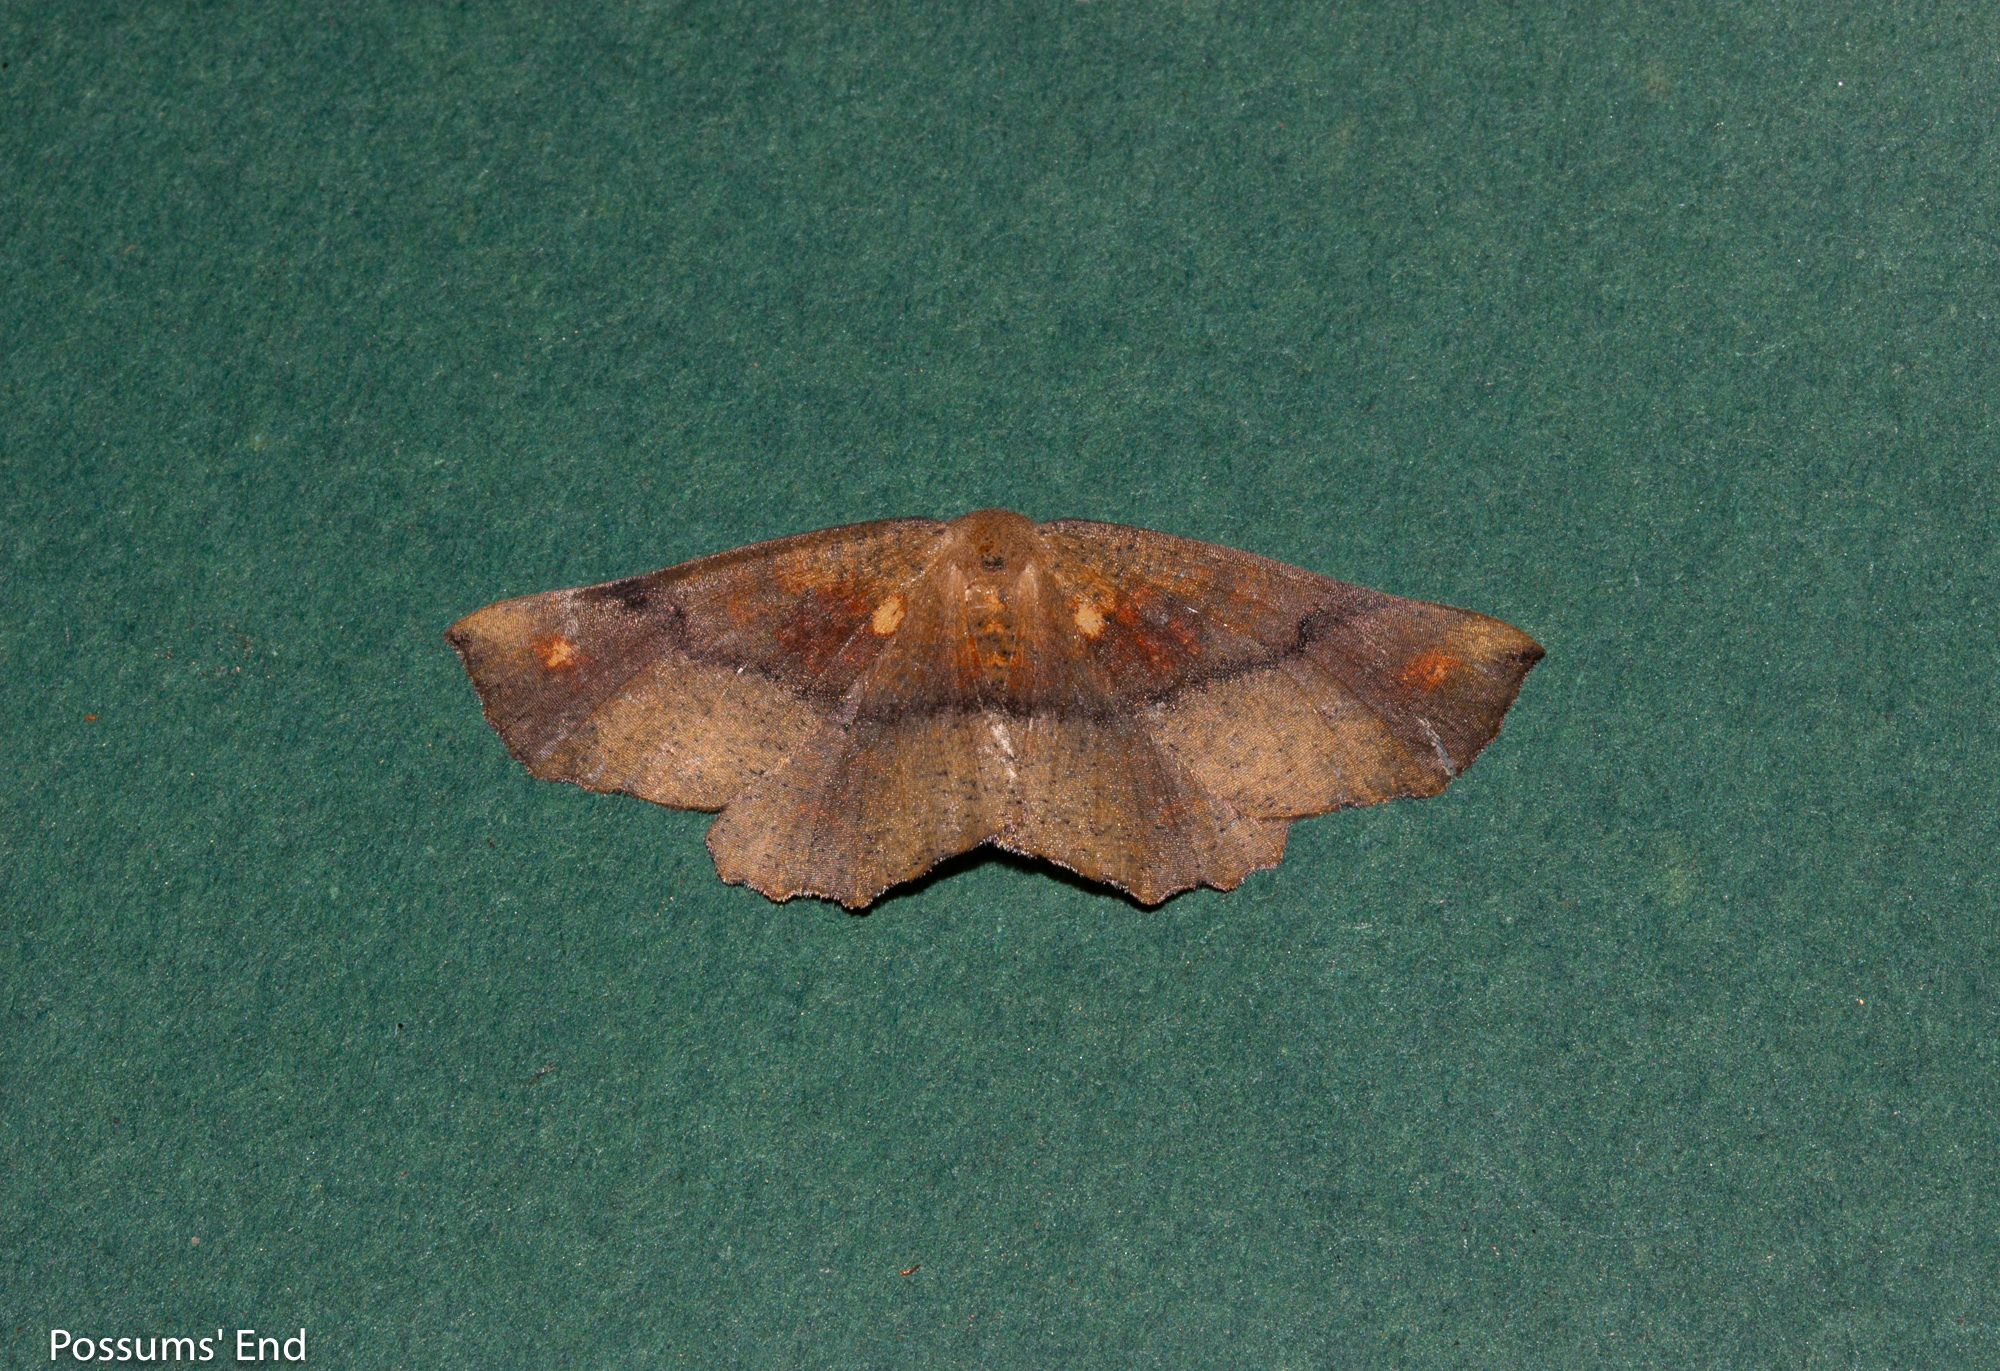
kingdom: Animalia
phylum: Arthropoda
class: Insecta
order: Lepidoptera
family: Geometridae
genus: Xyridacma
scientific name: Xyridacma ustaria
